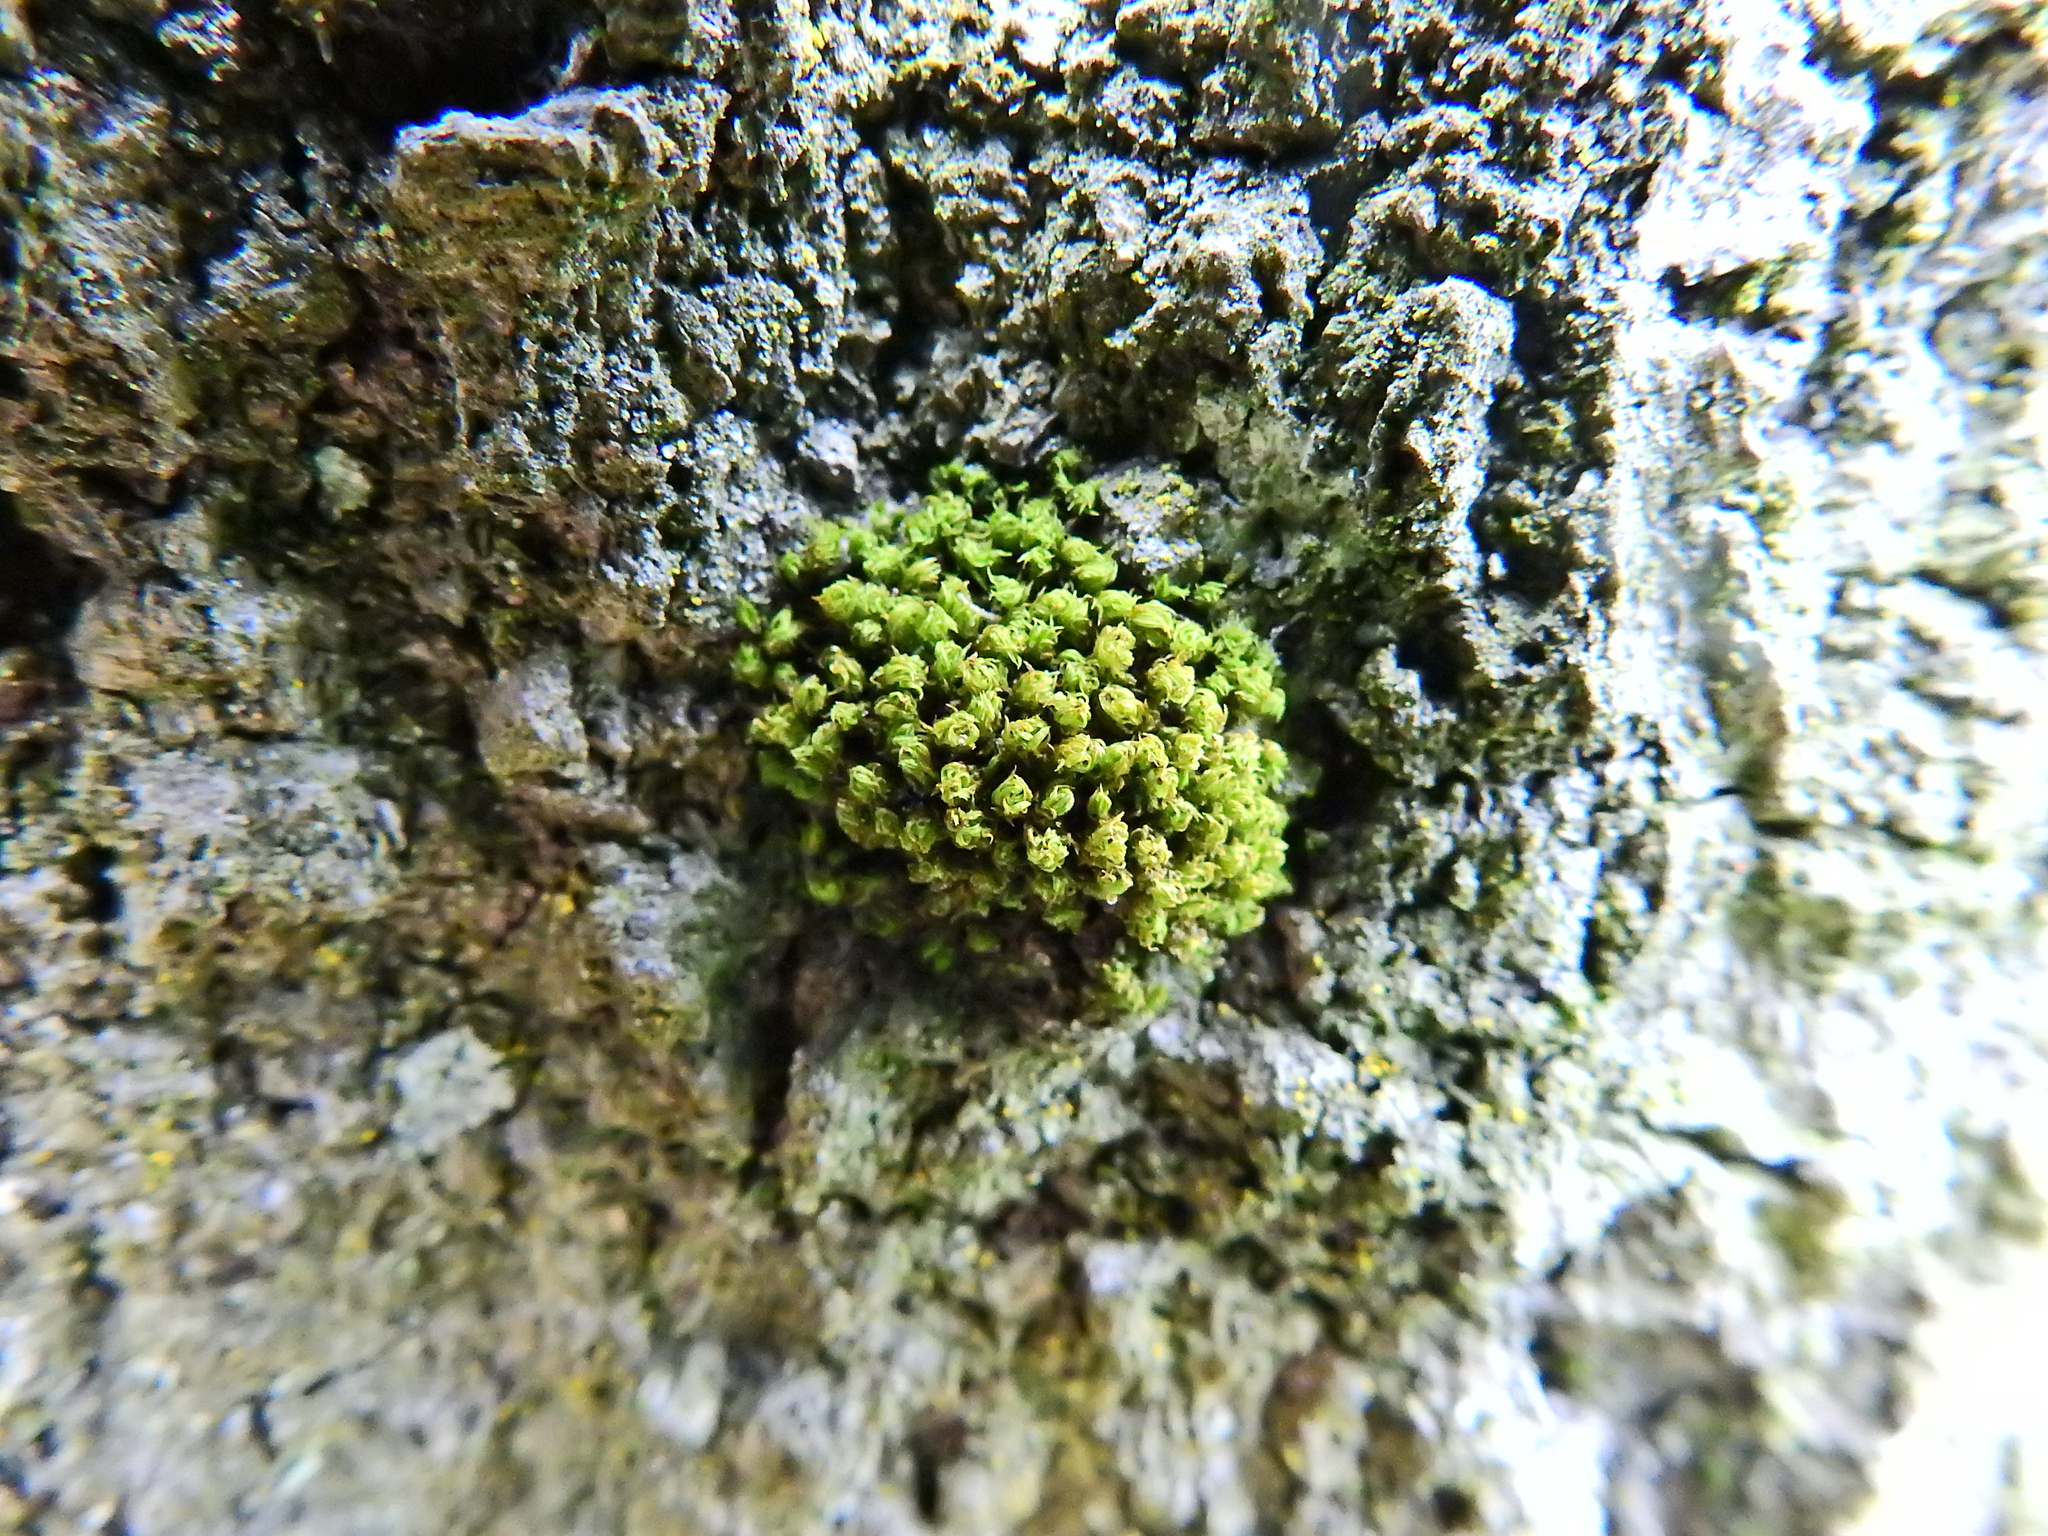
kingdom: Plantae
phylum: Bryophyta
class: Bryopsida
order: Orthotrichales
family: Orthotrichaceae
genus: Ulota
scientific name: Ulota crispa
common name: Crisped pincushion moss
